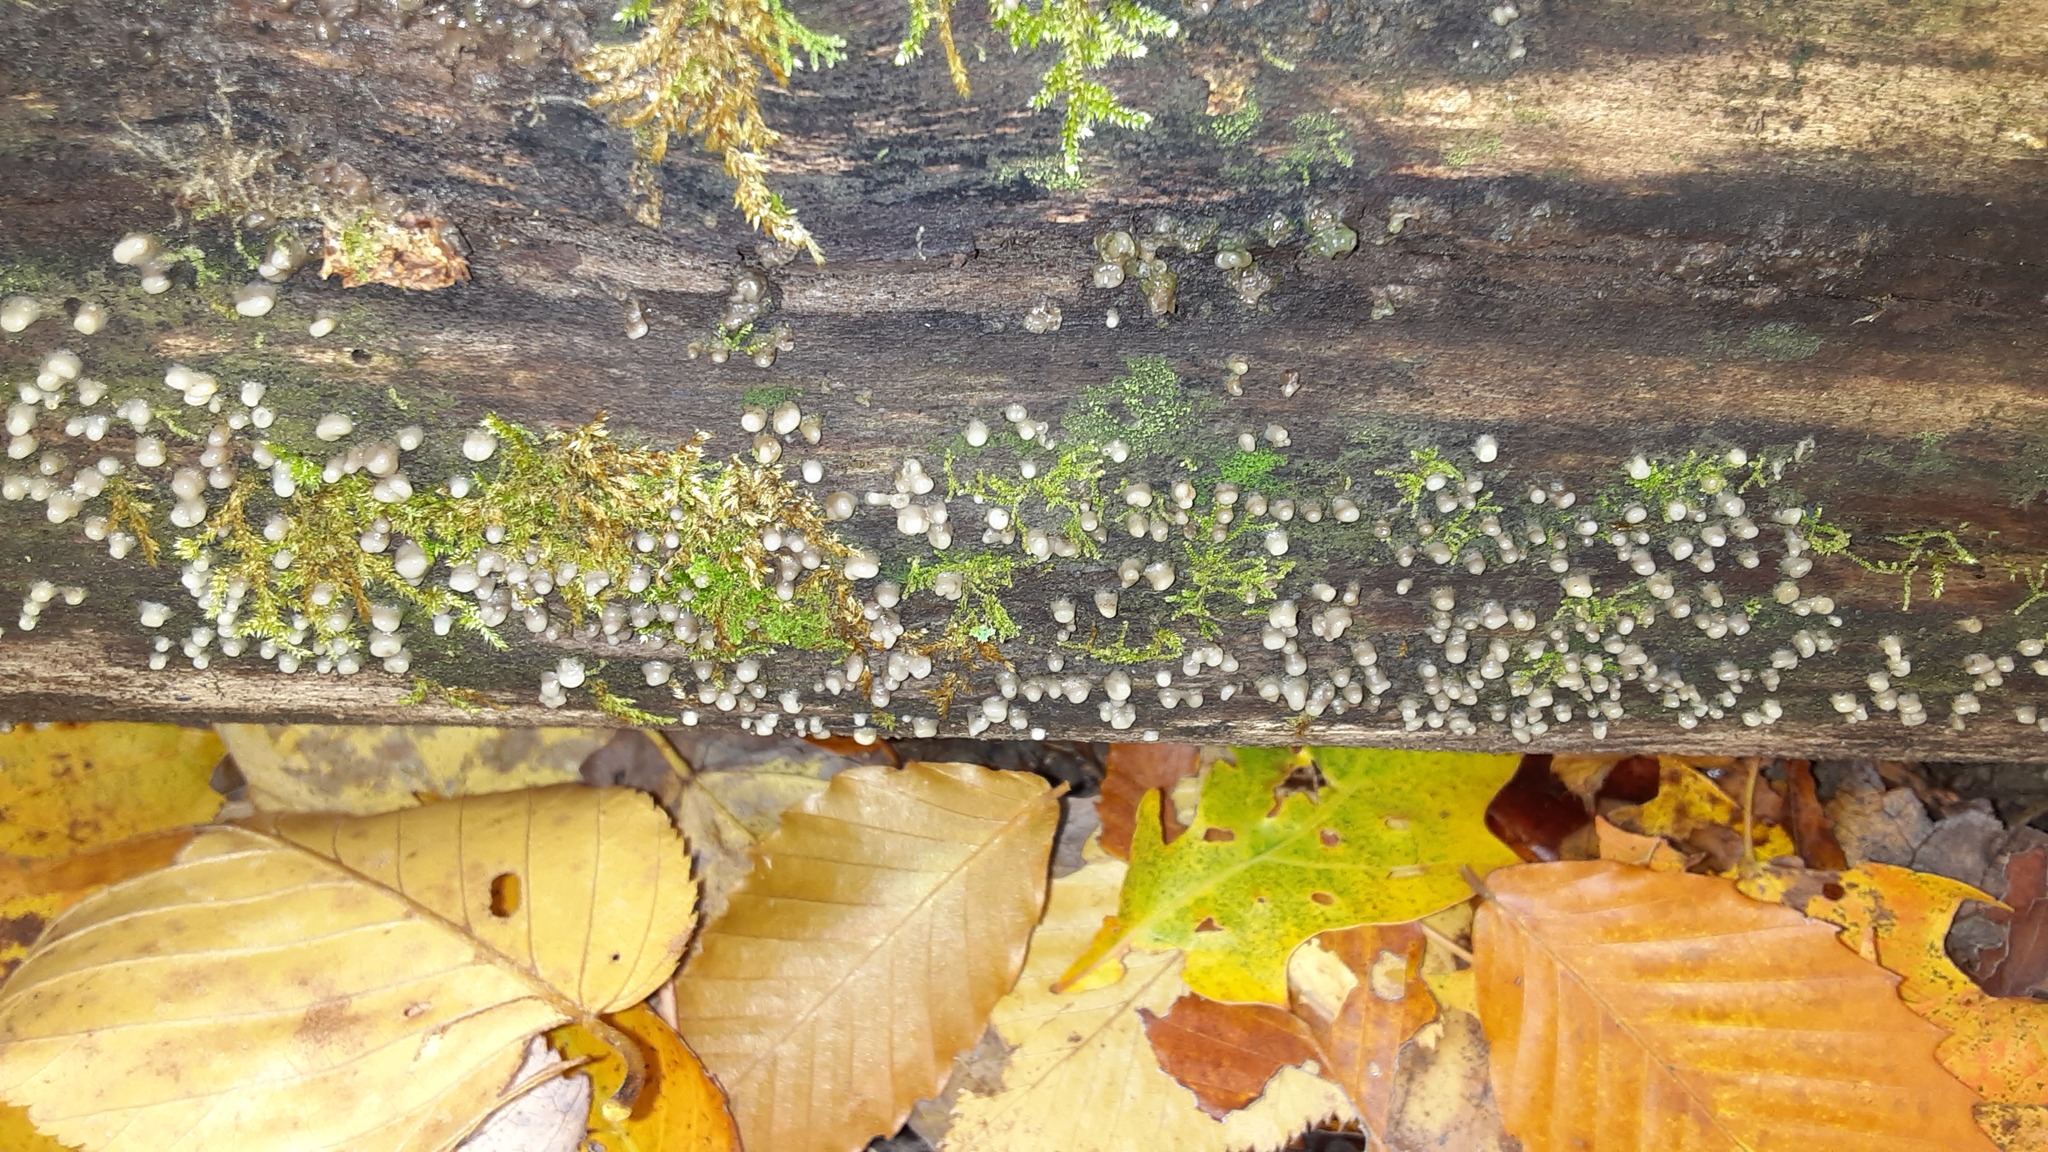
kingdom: Fungi
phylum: Basidiomycota
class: Atractiellomycetes
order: Atractiellales
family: Phleogenaceae
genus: Helicogloea
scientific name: Helicogloea compressa
